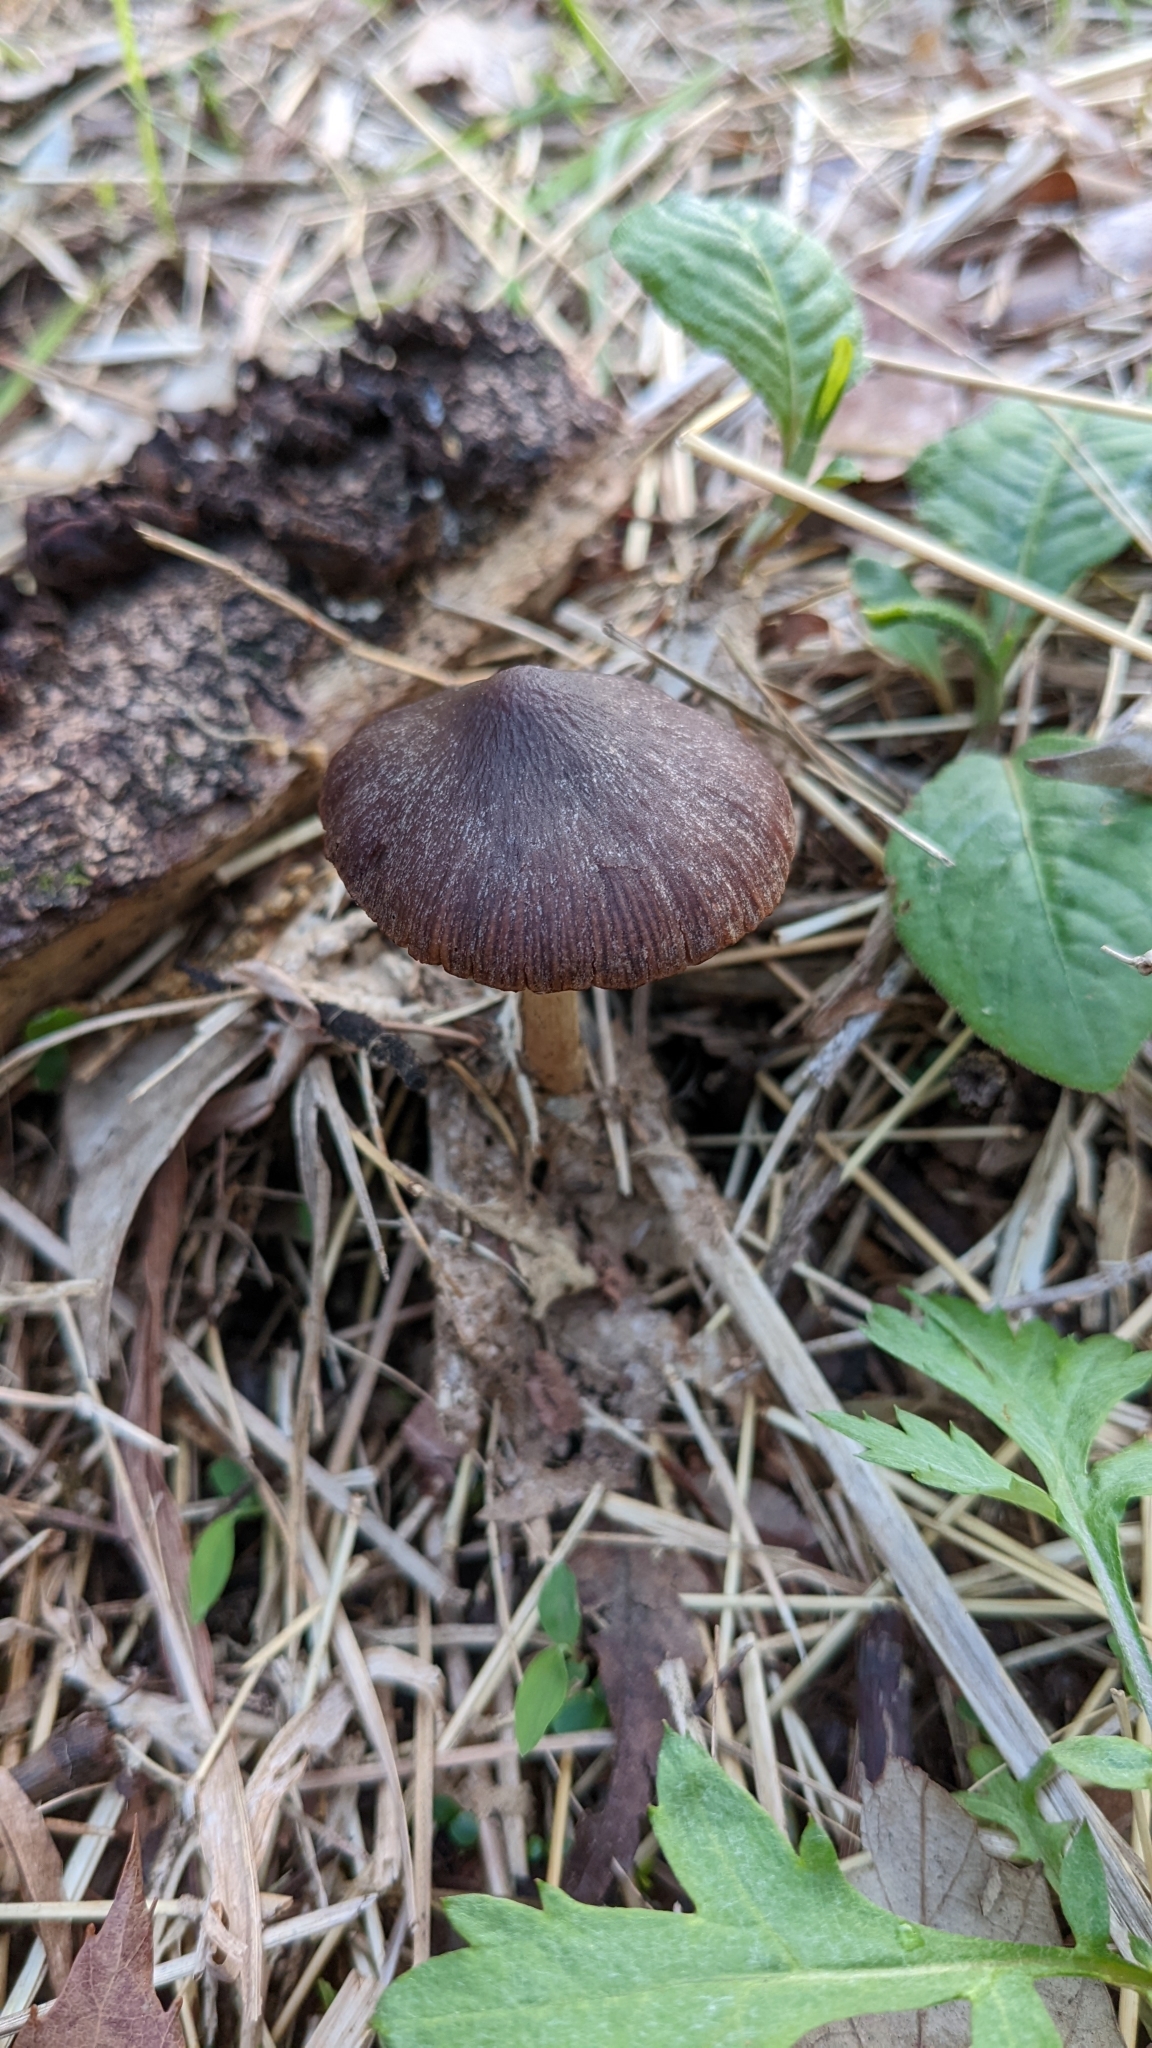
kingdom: Fungi
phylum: Basidiomycota
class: Agaricomycetes
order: Agaricales
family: Psathyrellaceae
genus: Psathyrella
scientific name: Psathyrella bipellis
